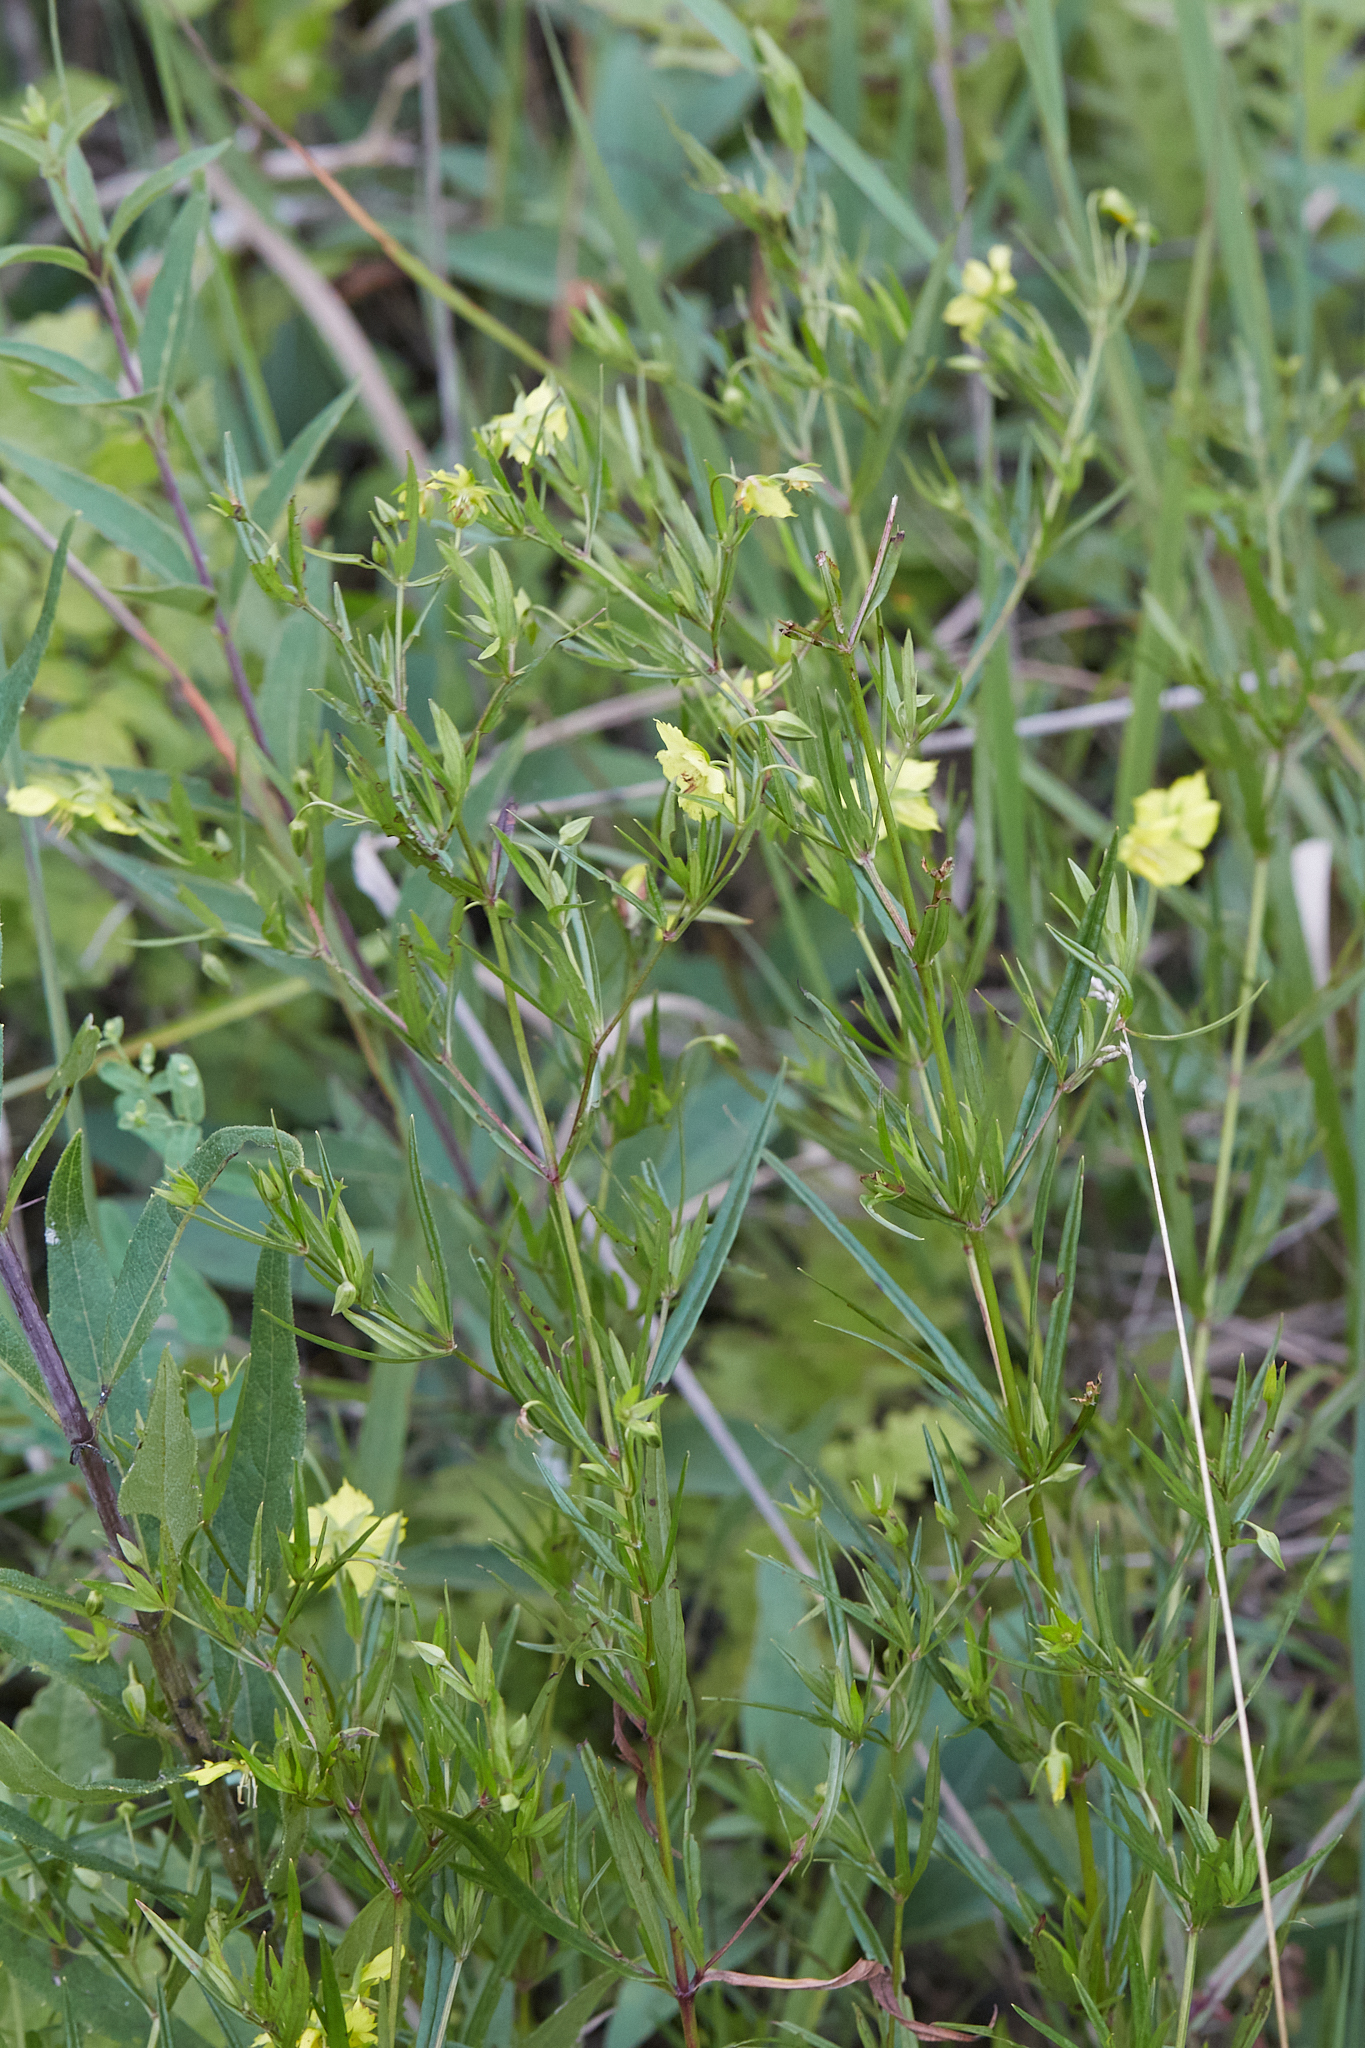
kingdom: Plantae
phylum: Tracheophyta
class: Magnoliopsida
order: Ericales
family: Primulaceae
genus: Lysimachia
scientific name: Lysimachia quadriflora
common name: Four-flowered loosestrife
